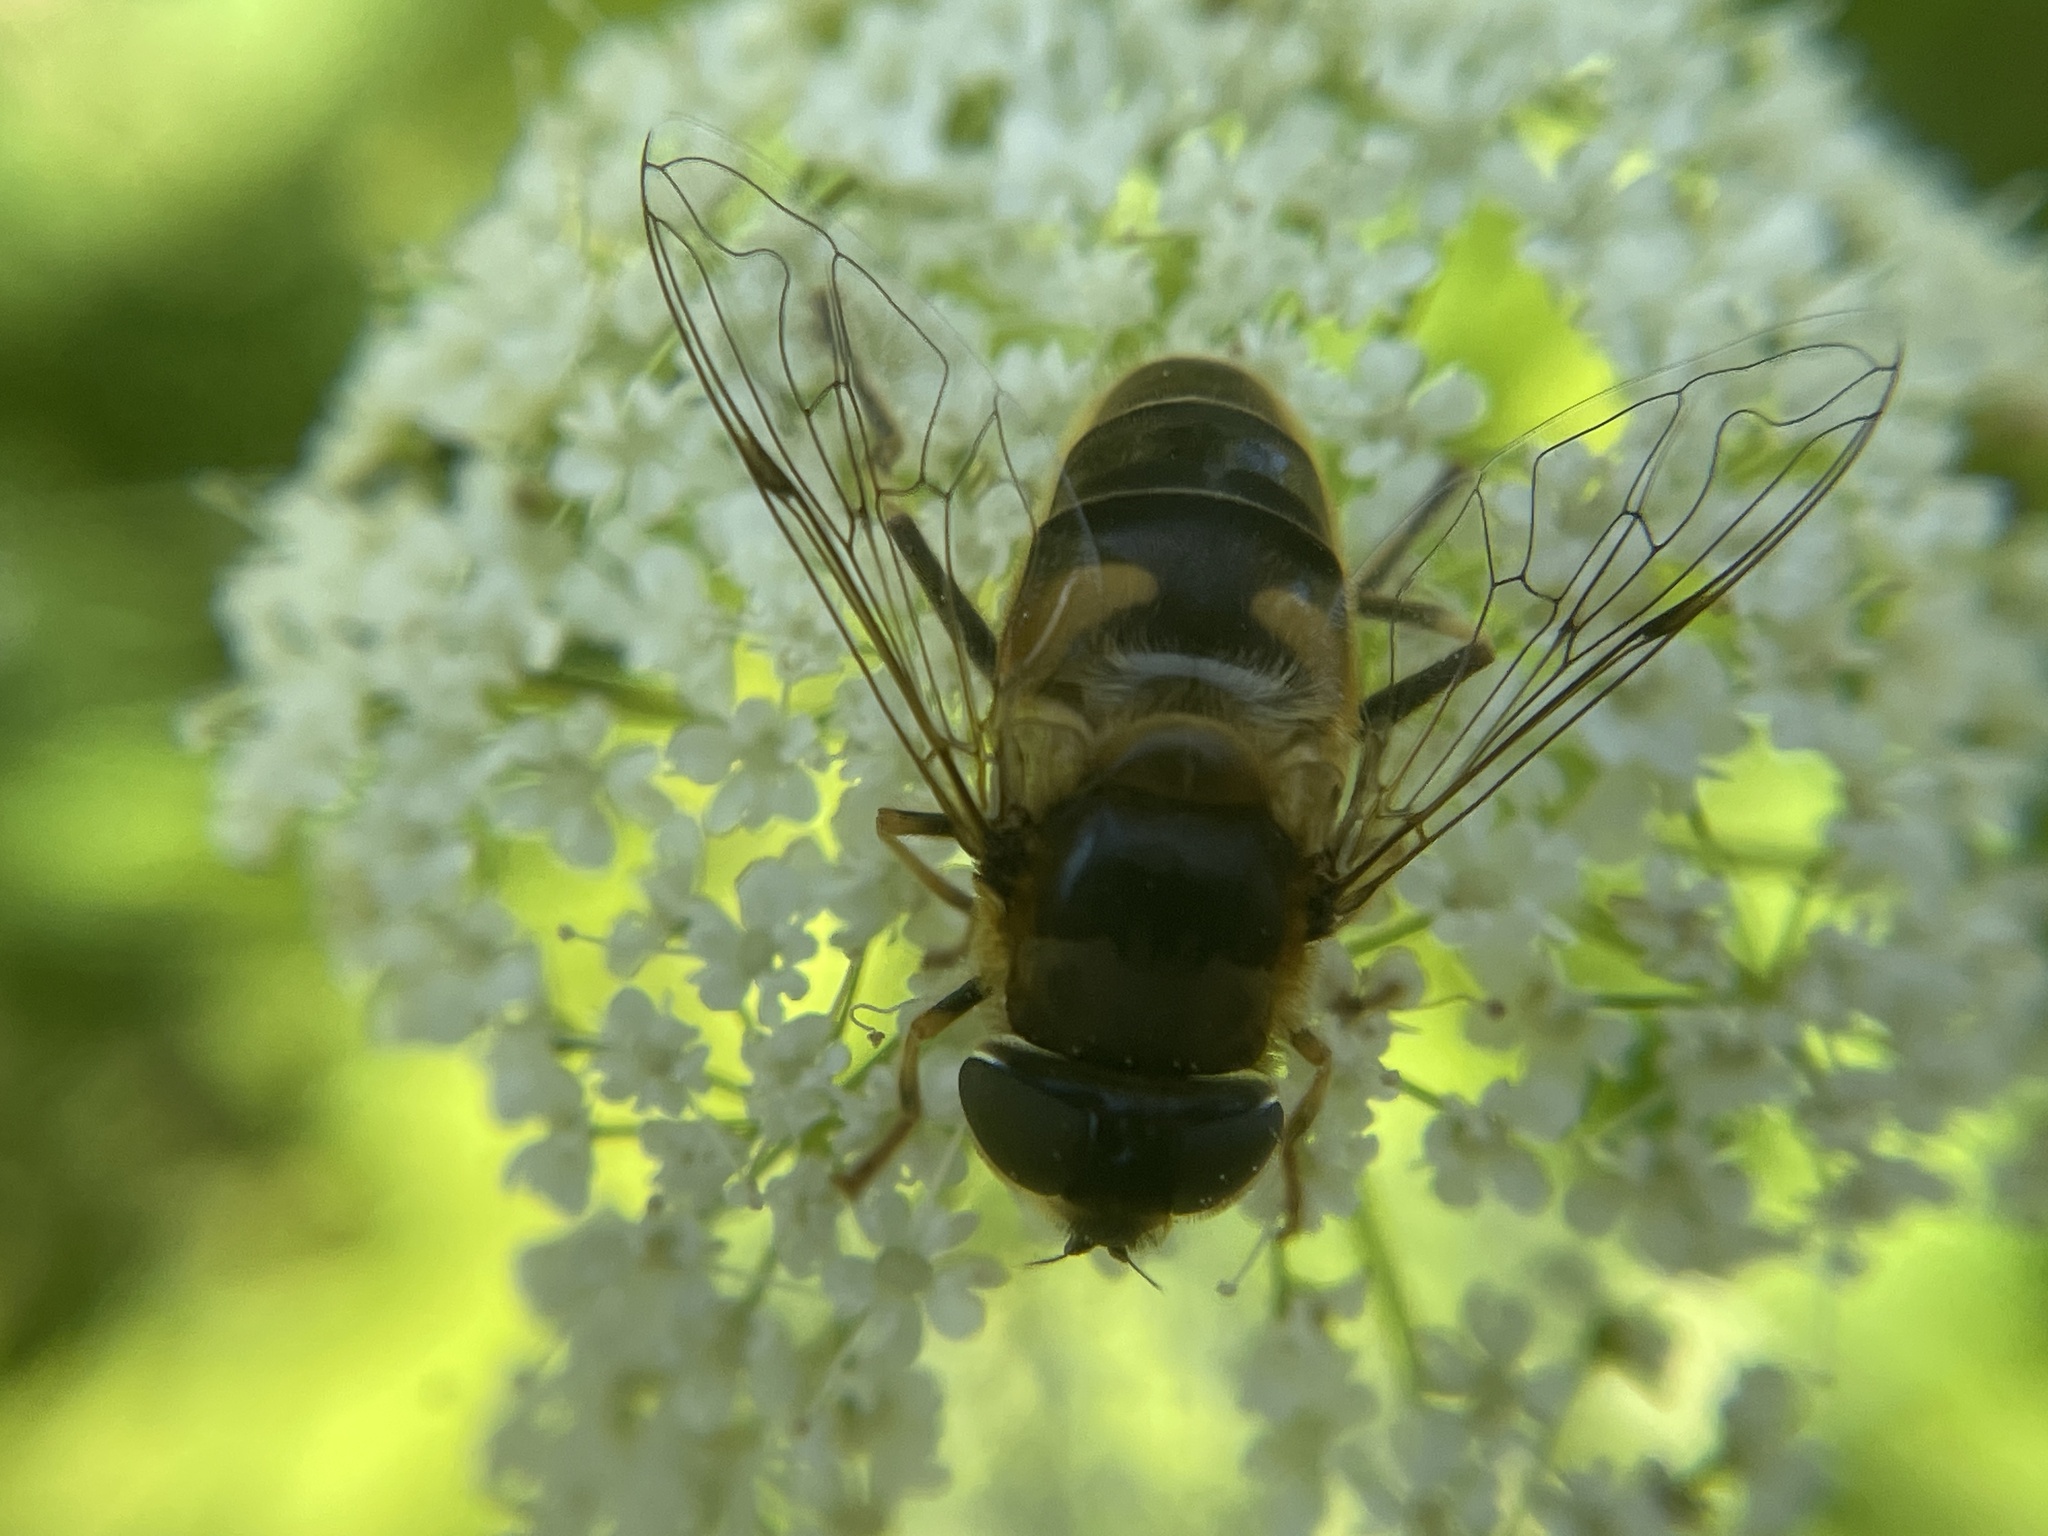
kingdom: Animalia
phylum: Arthropoda
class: Insecta
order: Diptera
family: Syrphidae
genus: Eristalis
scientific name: Eristalis pertinax
